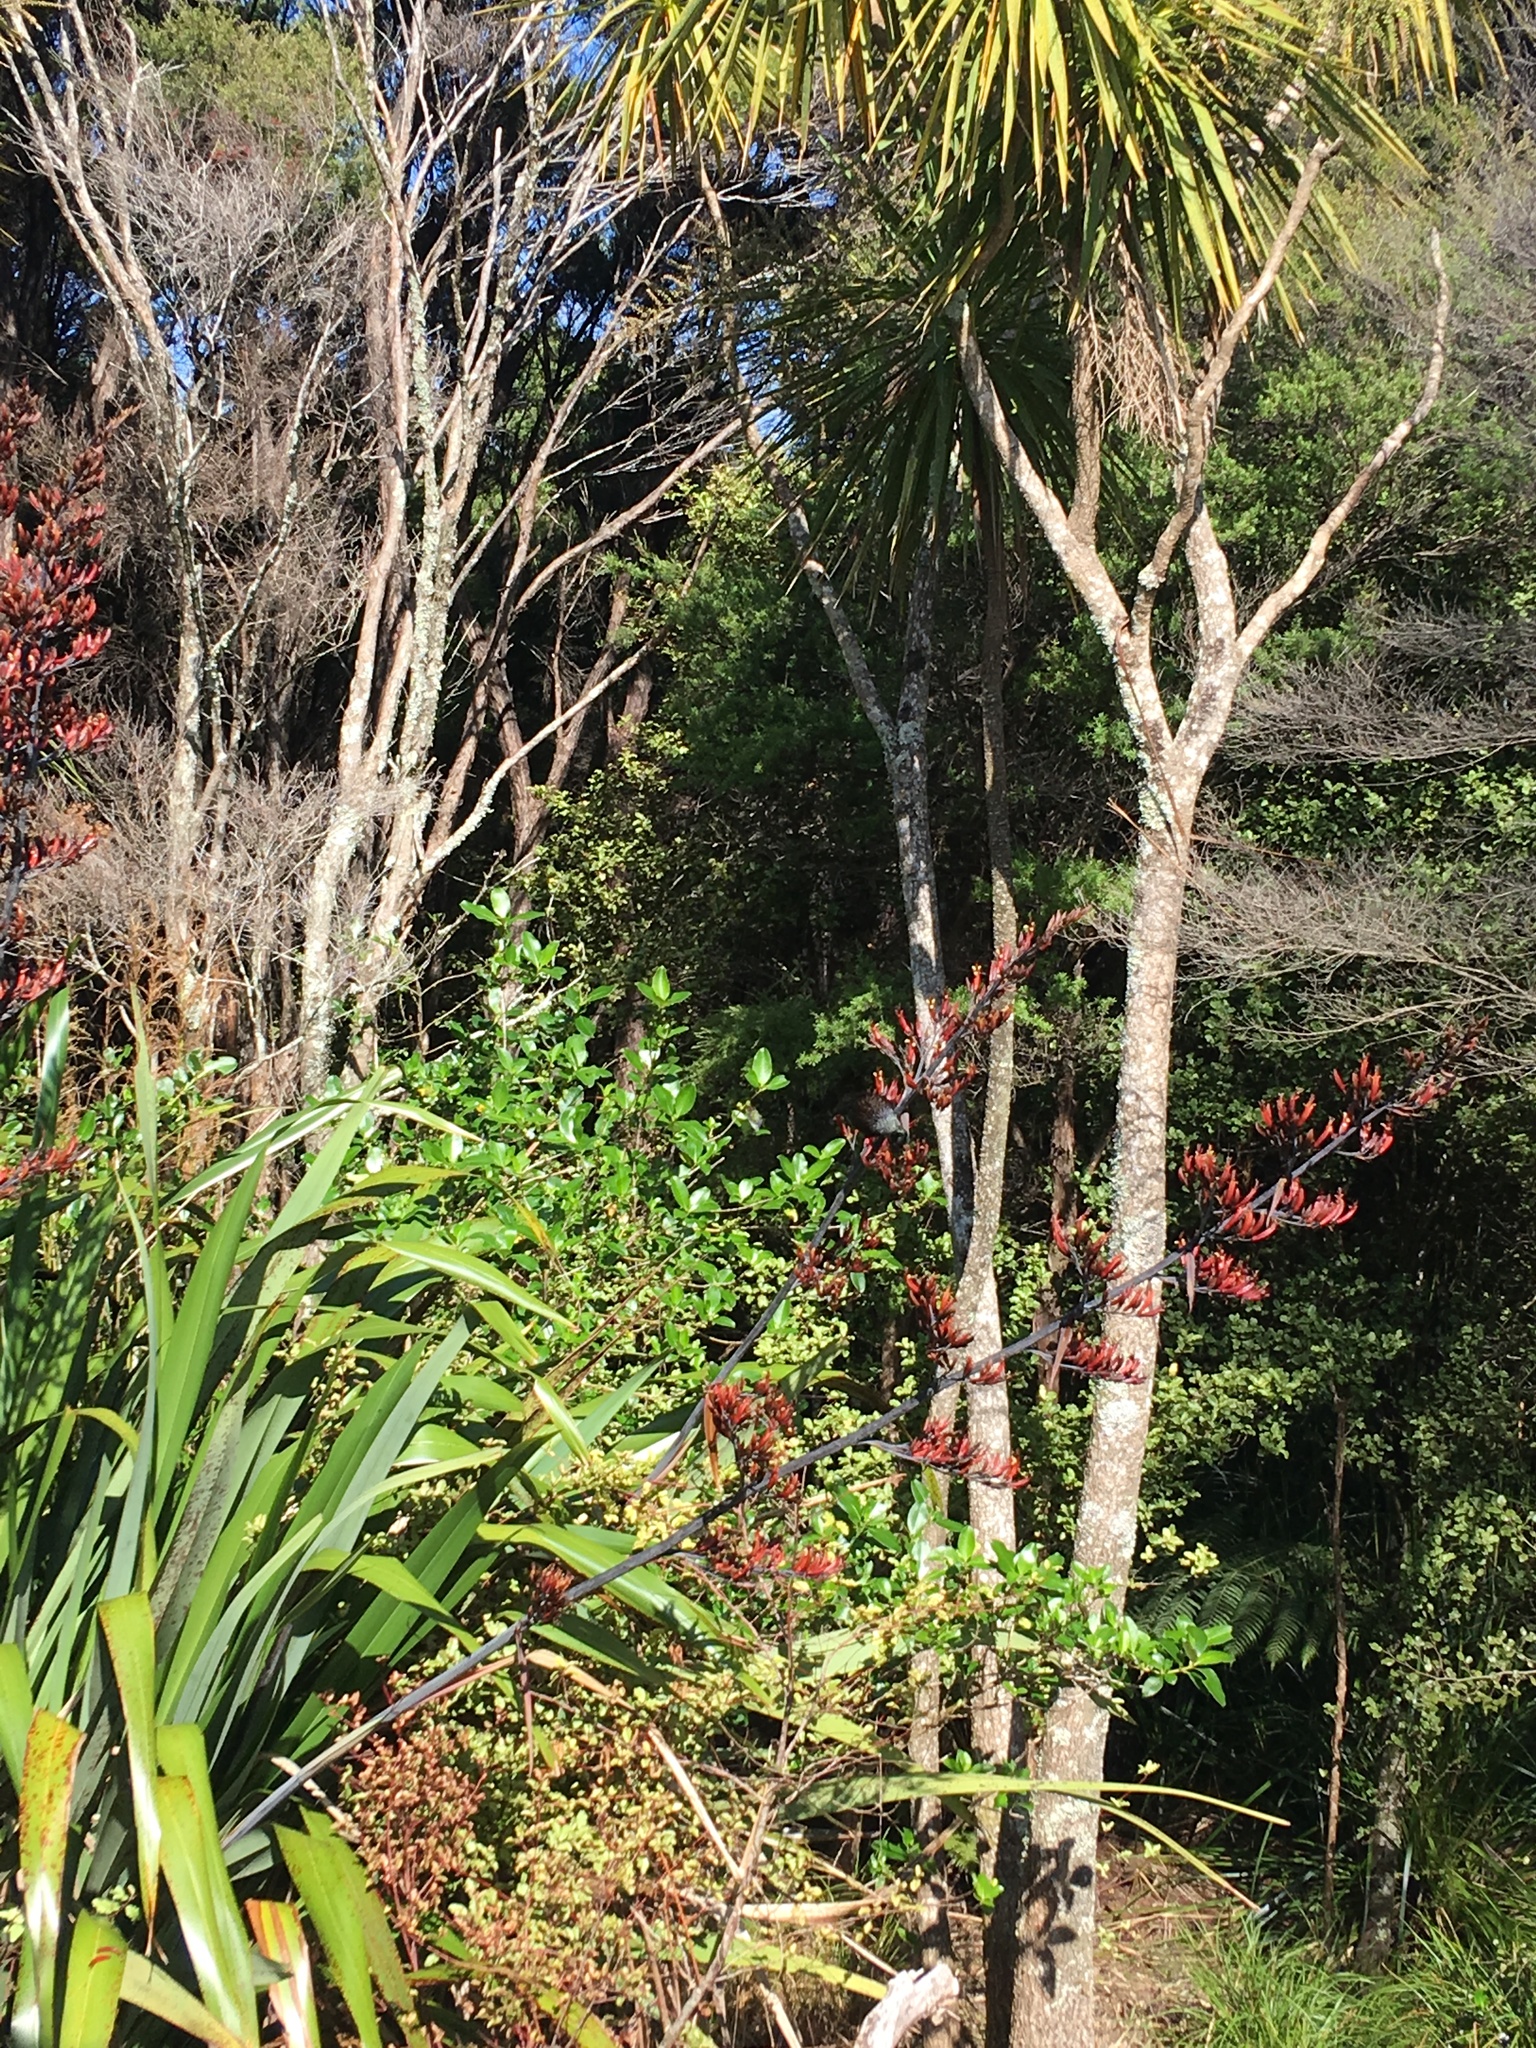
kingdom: Animalia
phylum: Chordata
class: Aves
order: Passeriformes
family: Meliphagidae
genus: Prosthemadera
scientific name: Prosthemadera novaeseelandiae
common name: Tui
